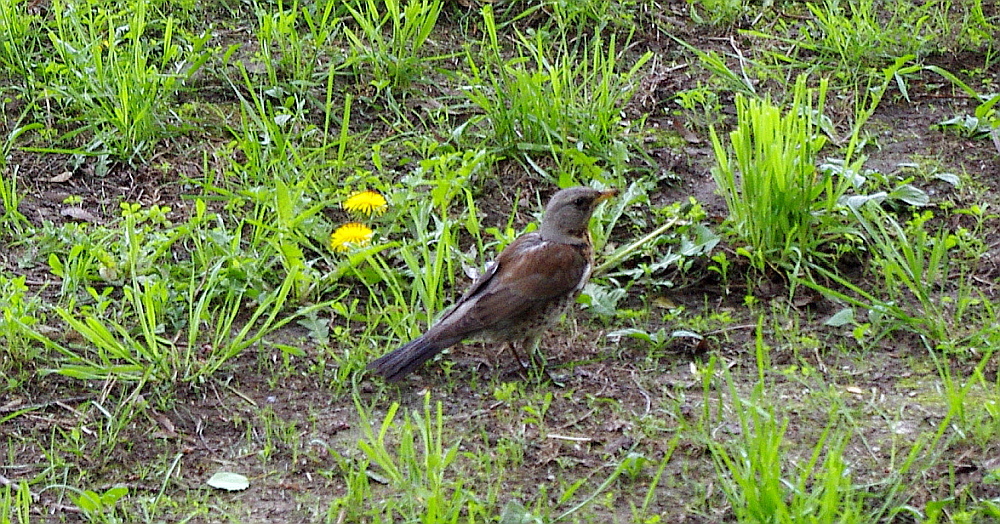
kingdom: Plantae
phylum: Tracheophyta
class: Magnoliopsida
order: Asterales
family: Asteraceae
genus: Taraxacum
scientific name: Taraxacum officinale
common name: Common dandelion
